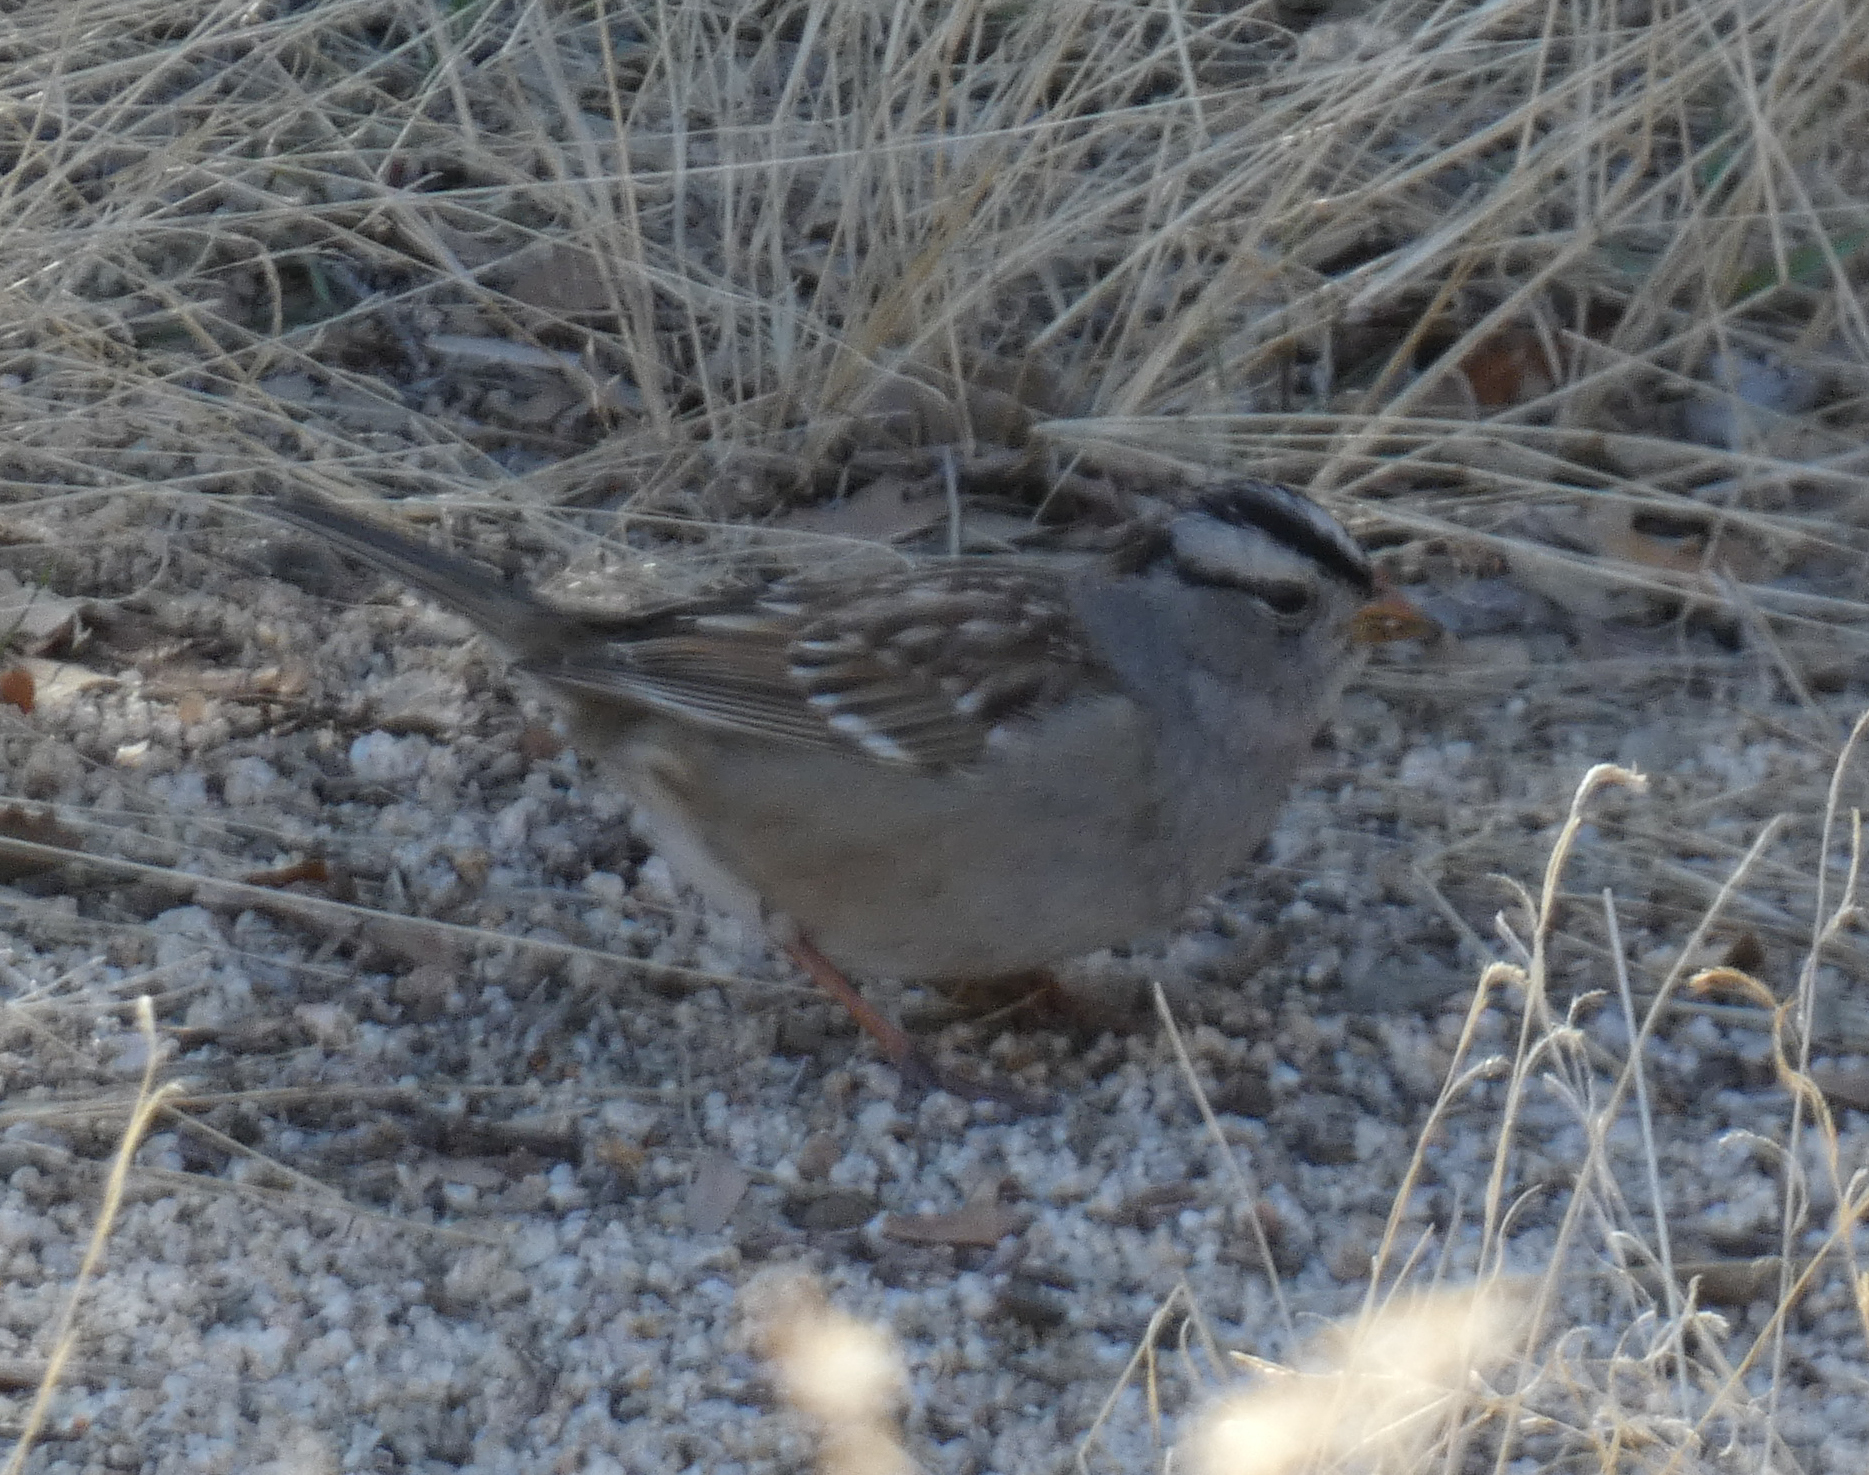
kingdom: Animalia
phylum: Chordata
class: Aves
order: Passeriformes
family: Passerellidae
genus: Zonotrichia
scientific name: Zonotrichia leucophrys
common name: White-crowned sparrow
